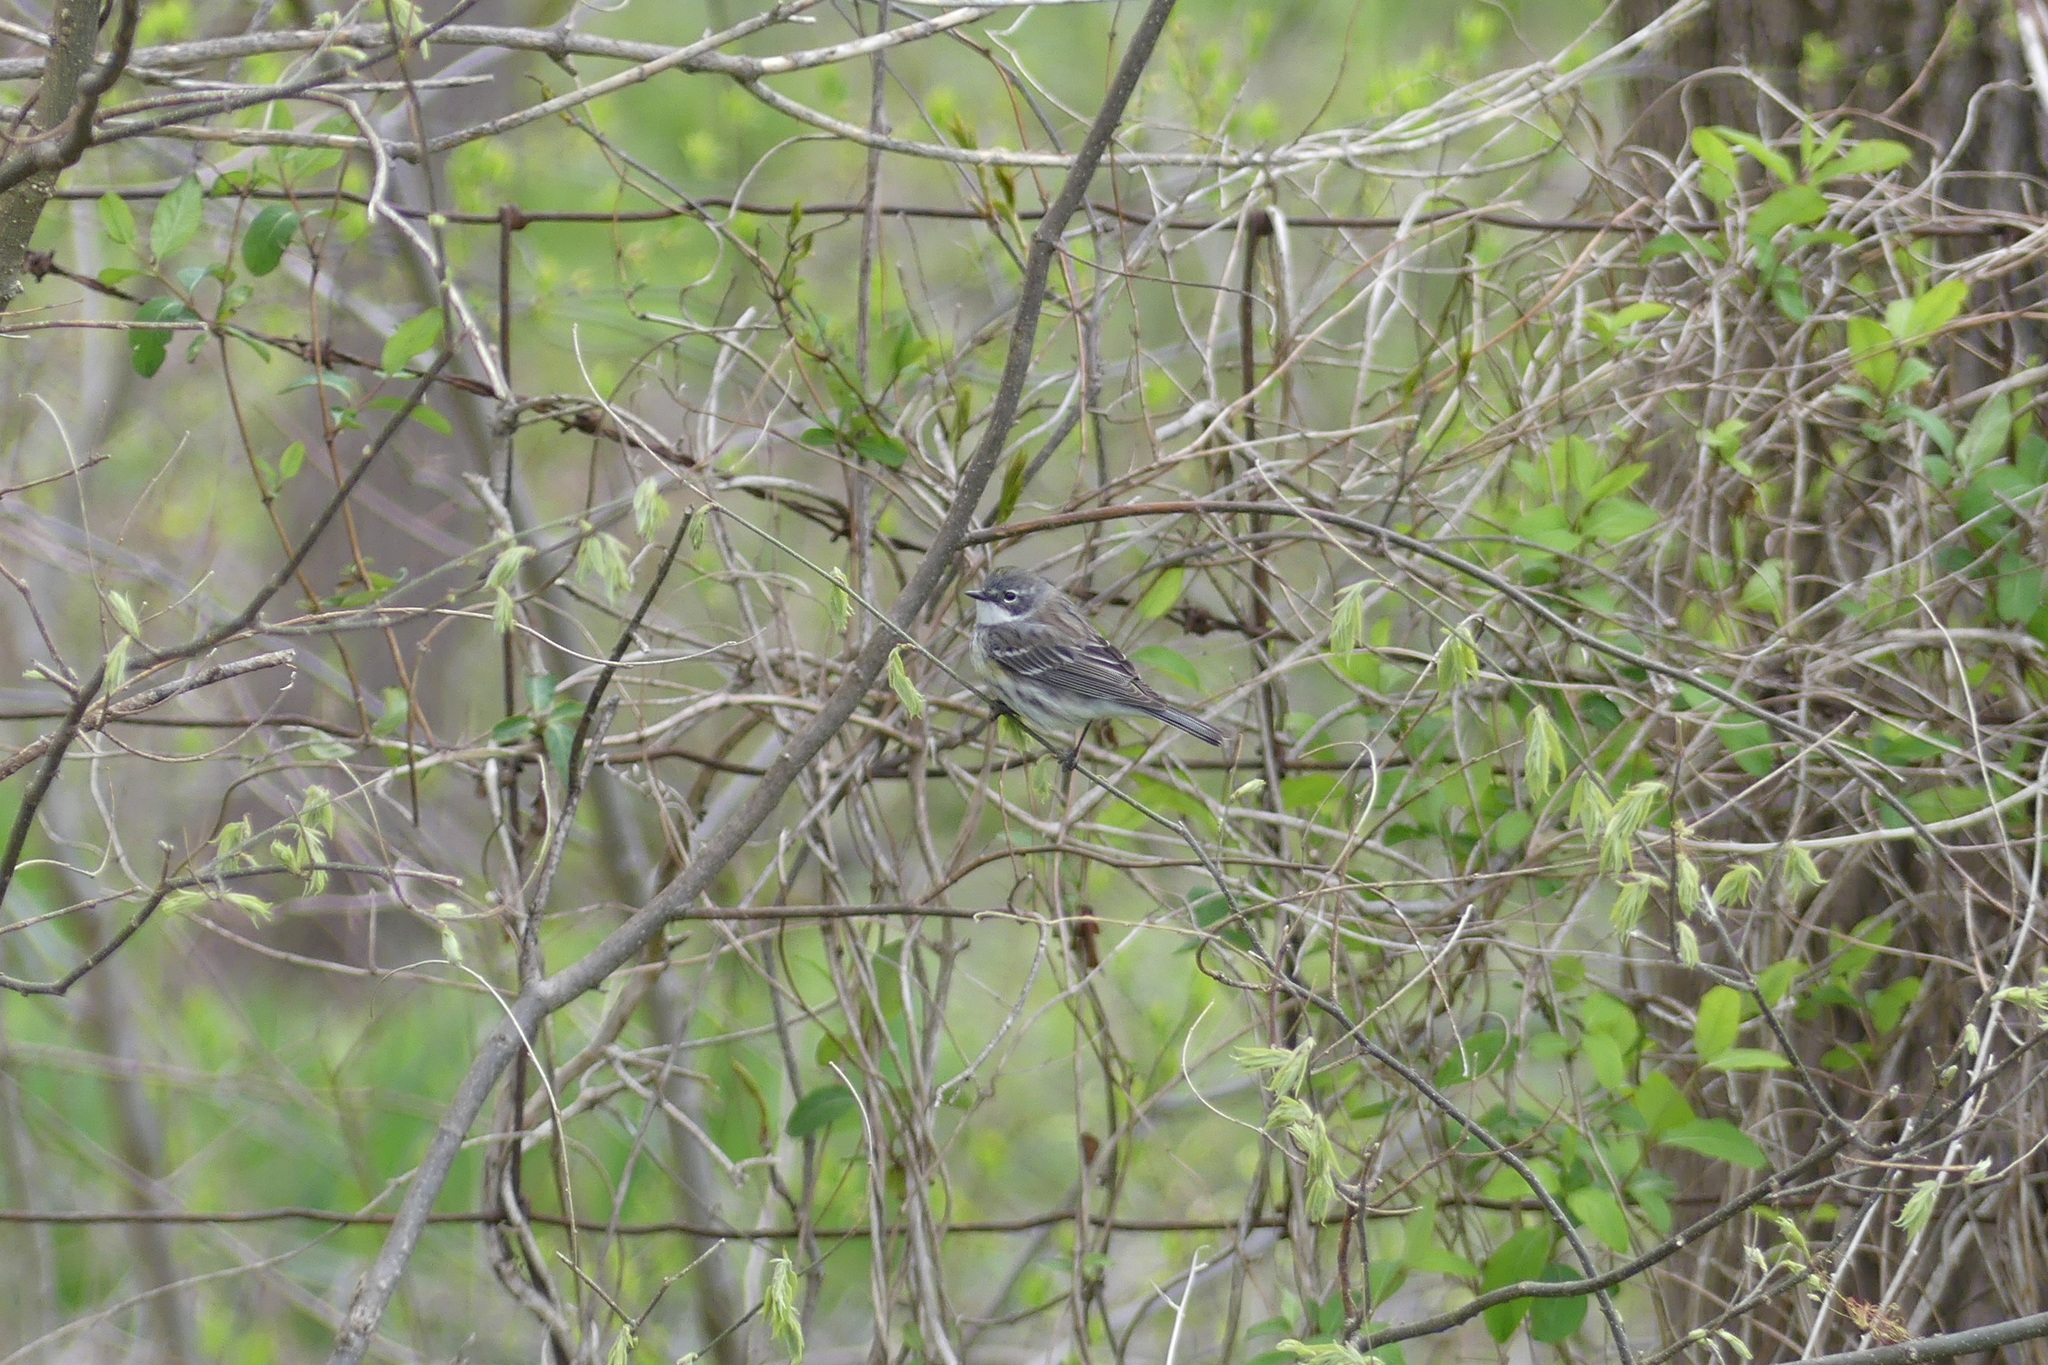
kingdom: Animalia
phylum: Chordata
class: Aves
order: Passeriformes
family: Parulidae
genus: Setophaga
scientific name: Setophaga coronata
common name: Myrtle warbler
